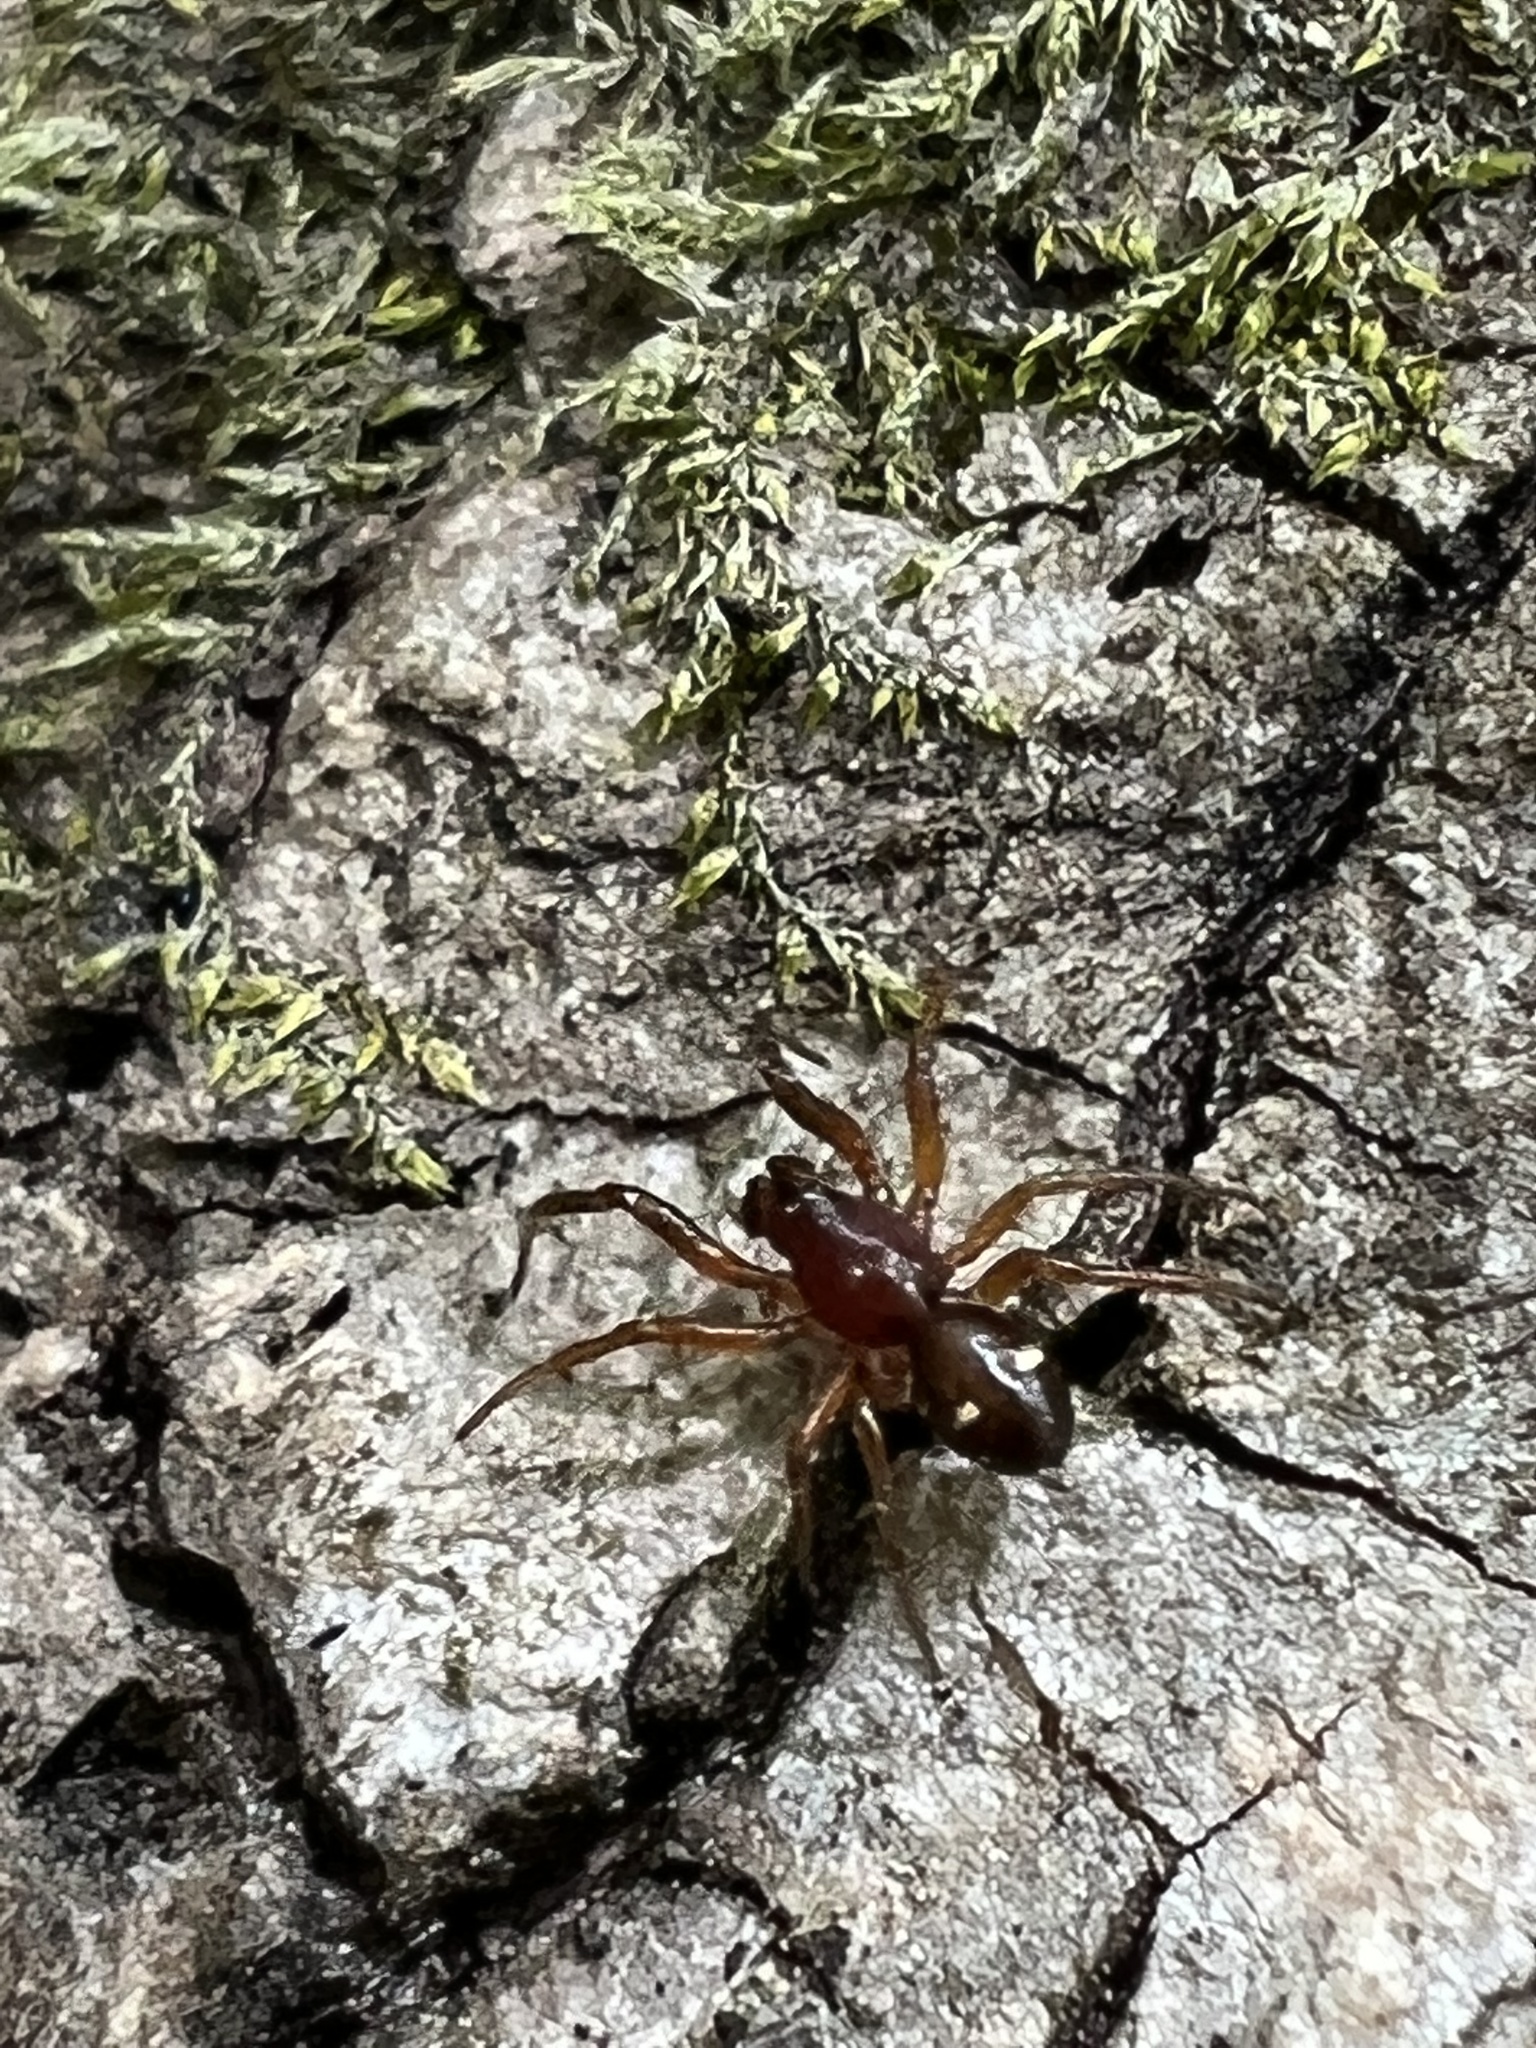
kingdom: Animalia
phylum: Arthropoda
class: Arachnida
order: Araneae
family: Theridiidae
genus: Asagena
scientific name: Asagena americana
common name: Two-spotted cobweb spider
